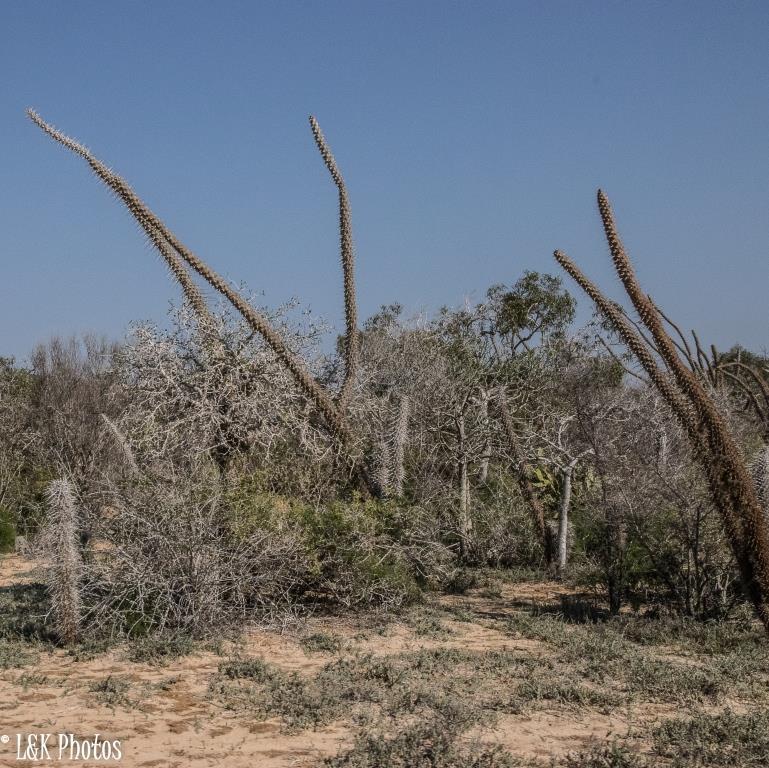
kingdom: Plantae
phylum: Tracheophyta
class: Magnoliopsida
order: Caryophyllales
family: Didiereaceae
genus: Alluaudia
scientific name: Alluaudia montagnacii
